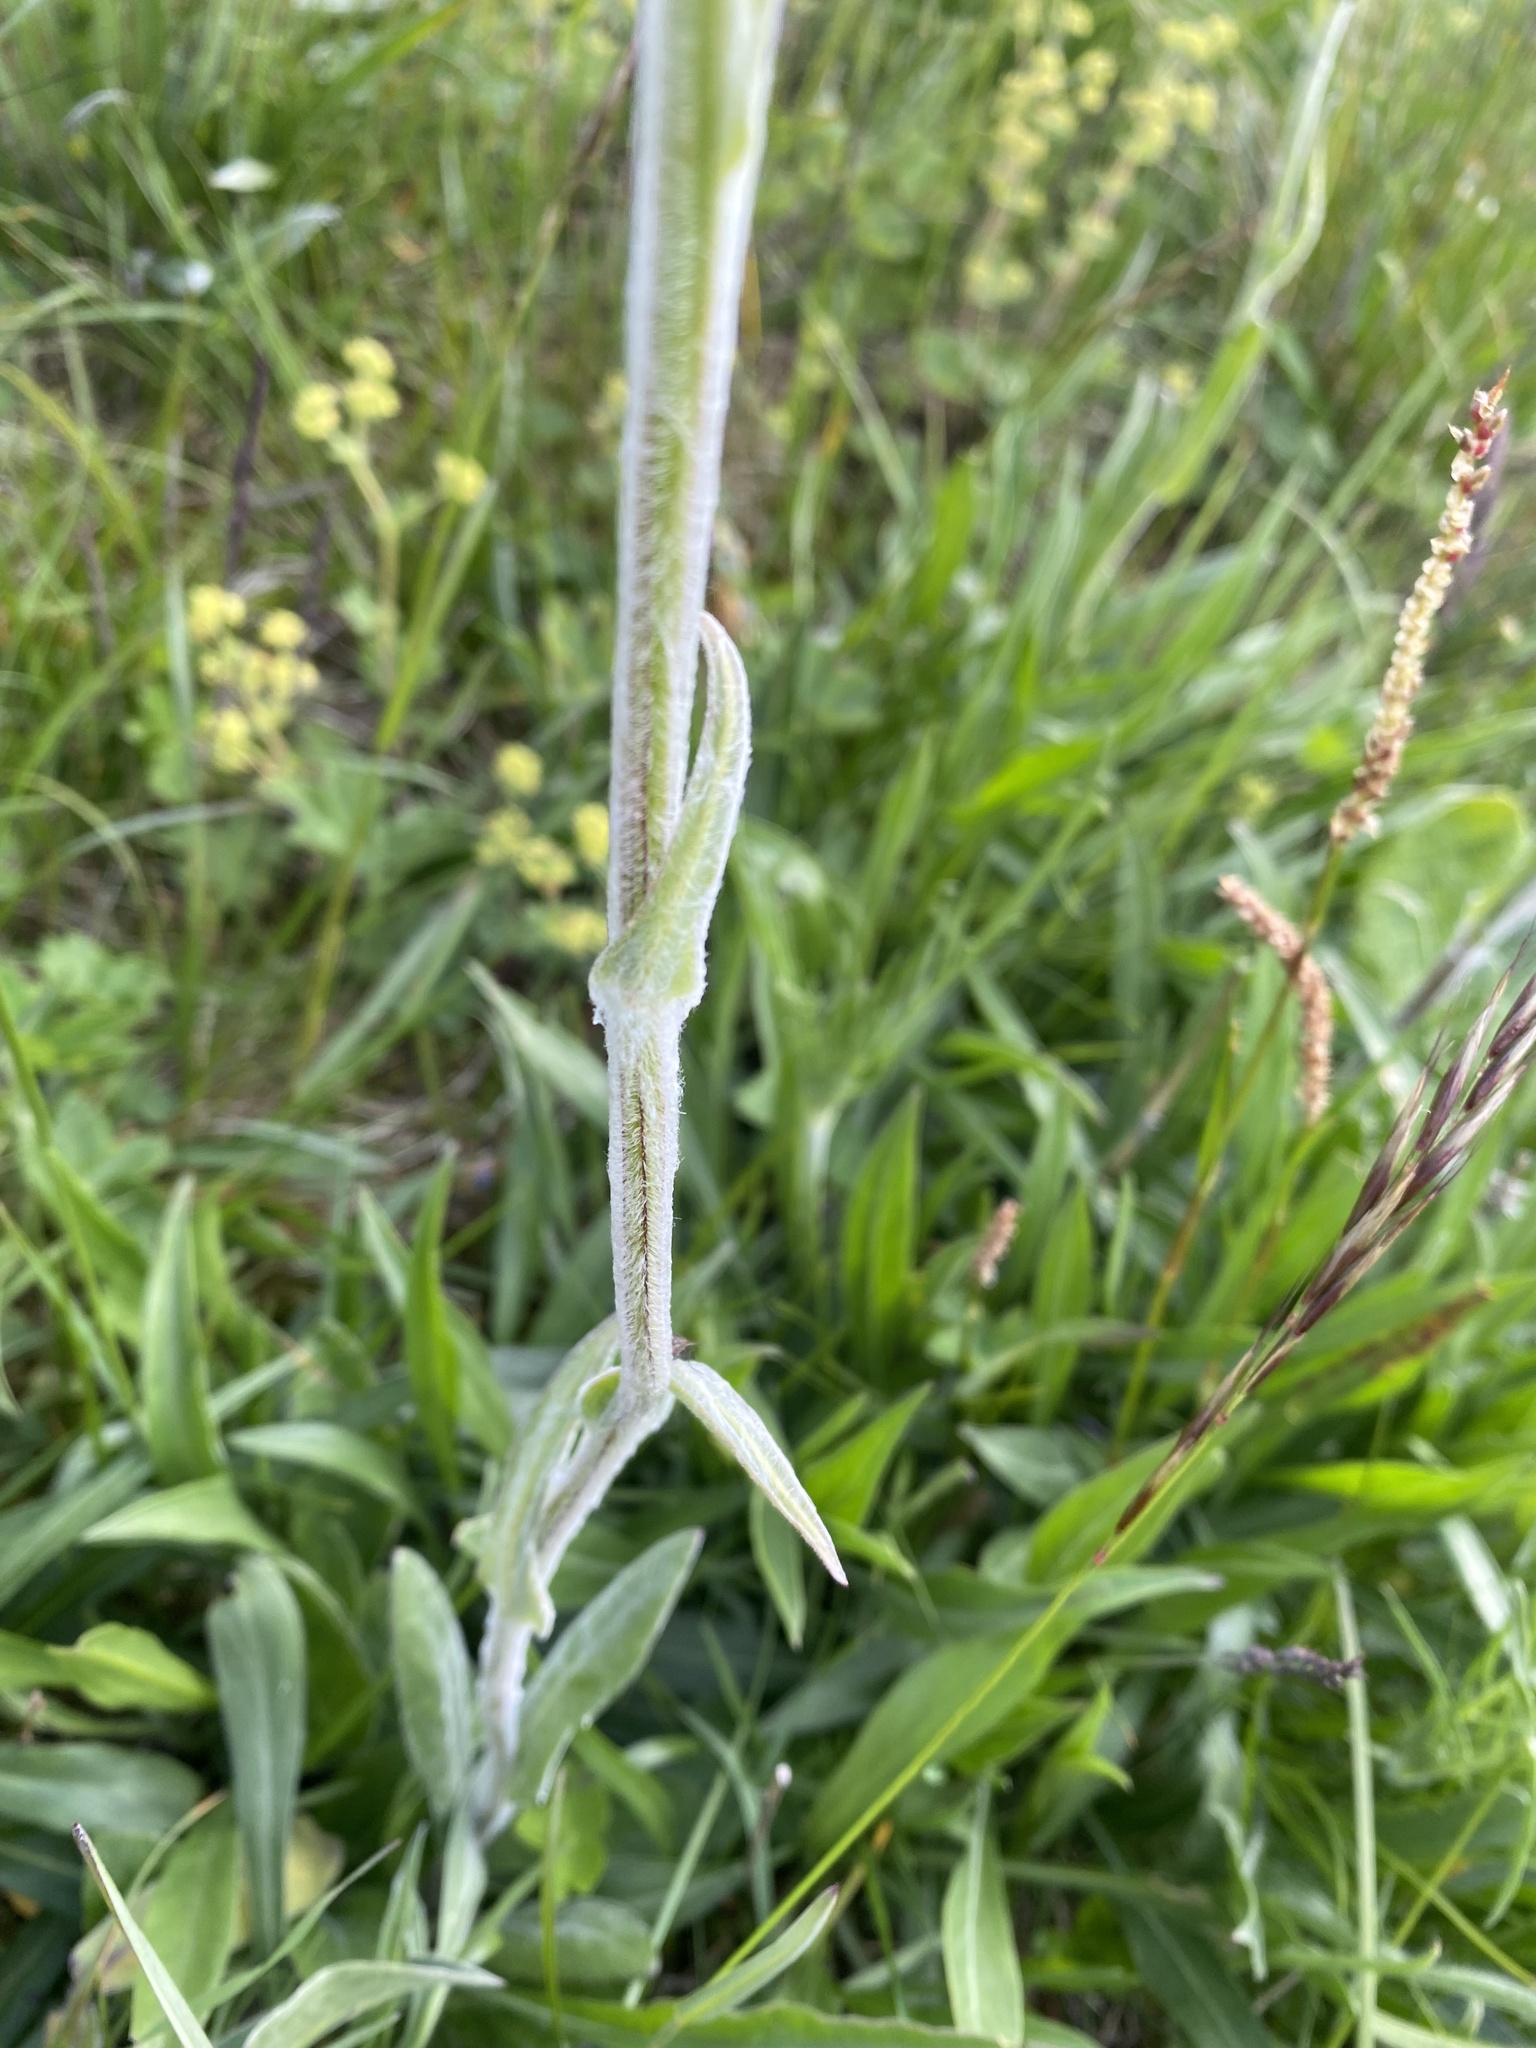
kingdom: Plantae
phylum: Tracheophyta
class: Magnoliopsida
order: Asterales
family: Asteraceae
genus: Tephroseris
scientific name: Tephroseris integrifolia
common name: Field fleawort
